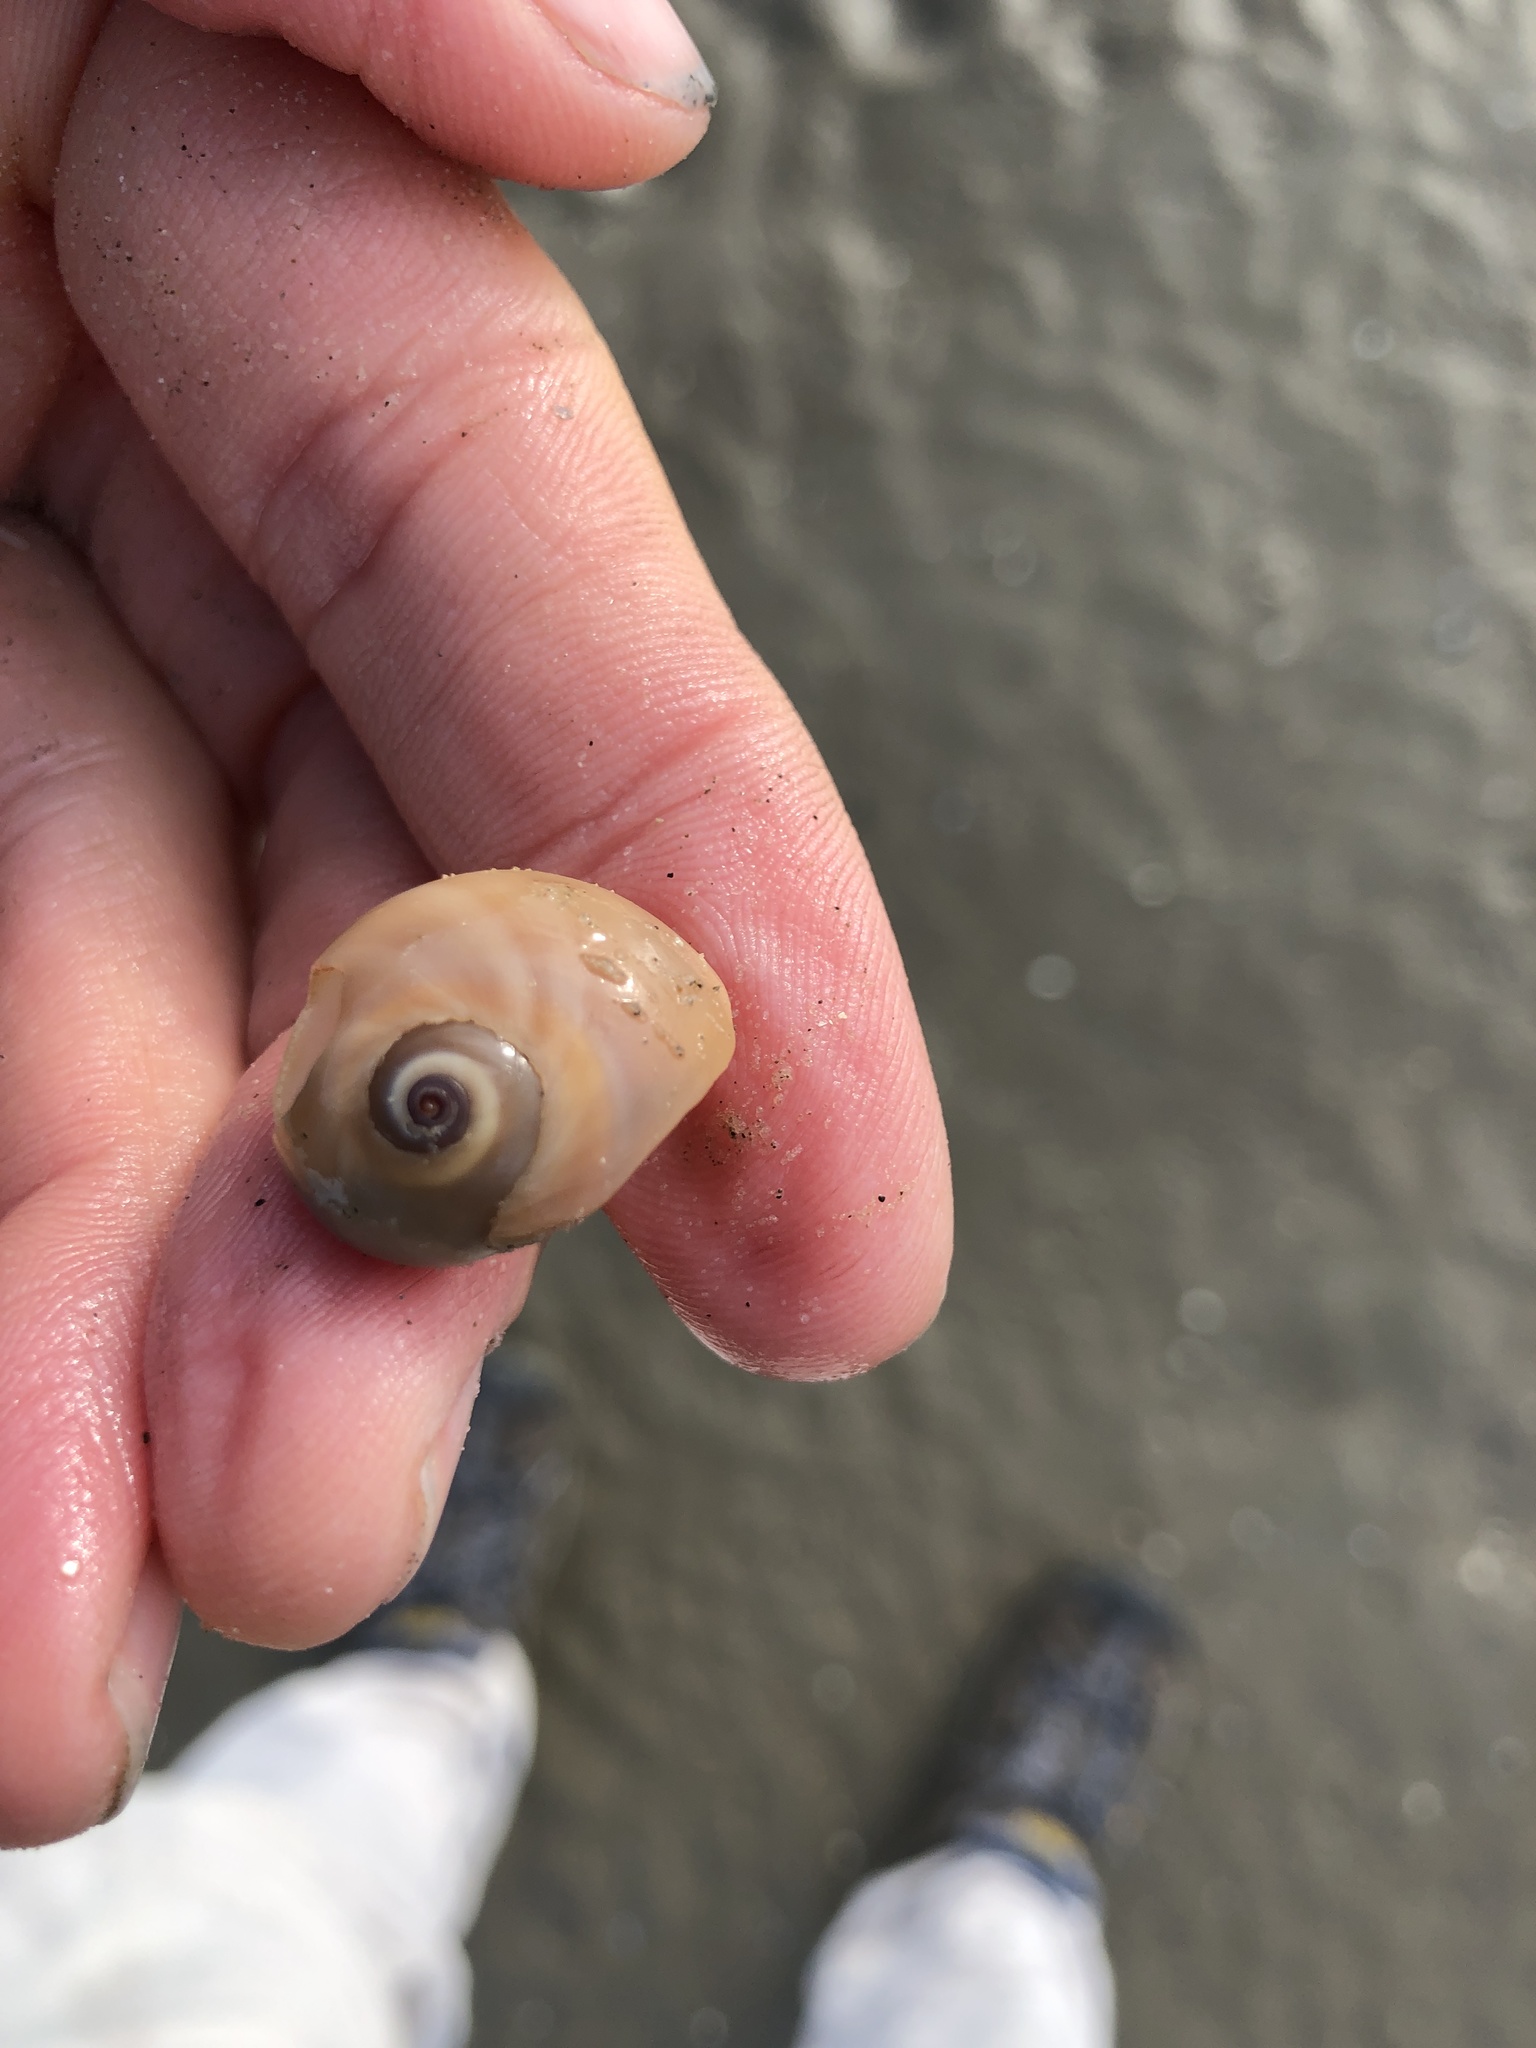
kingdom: Animalia
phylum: Mollusca
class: Gastropoda
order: Littorinimorpha
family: Naticidae
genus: Neverita
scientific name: Neverita duplicata
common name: Lobed moonsnail
